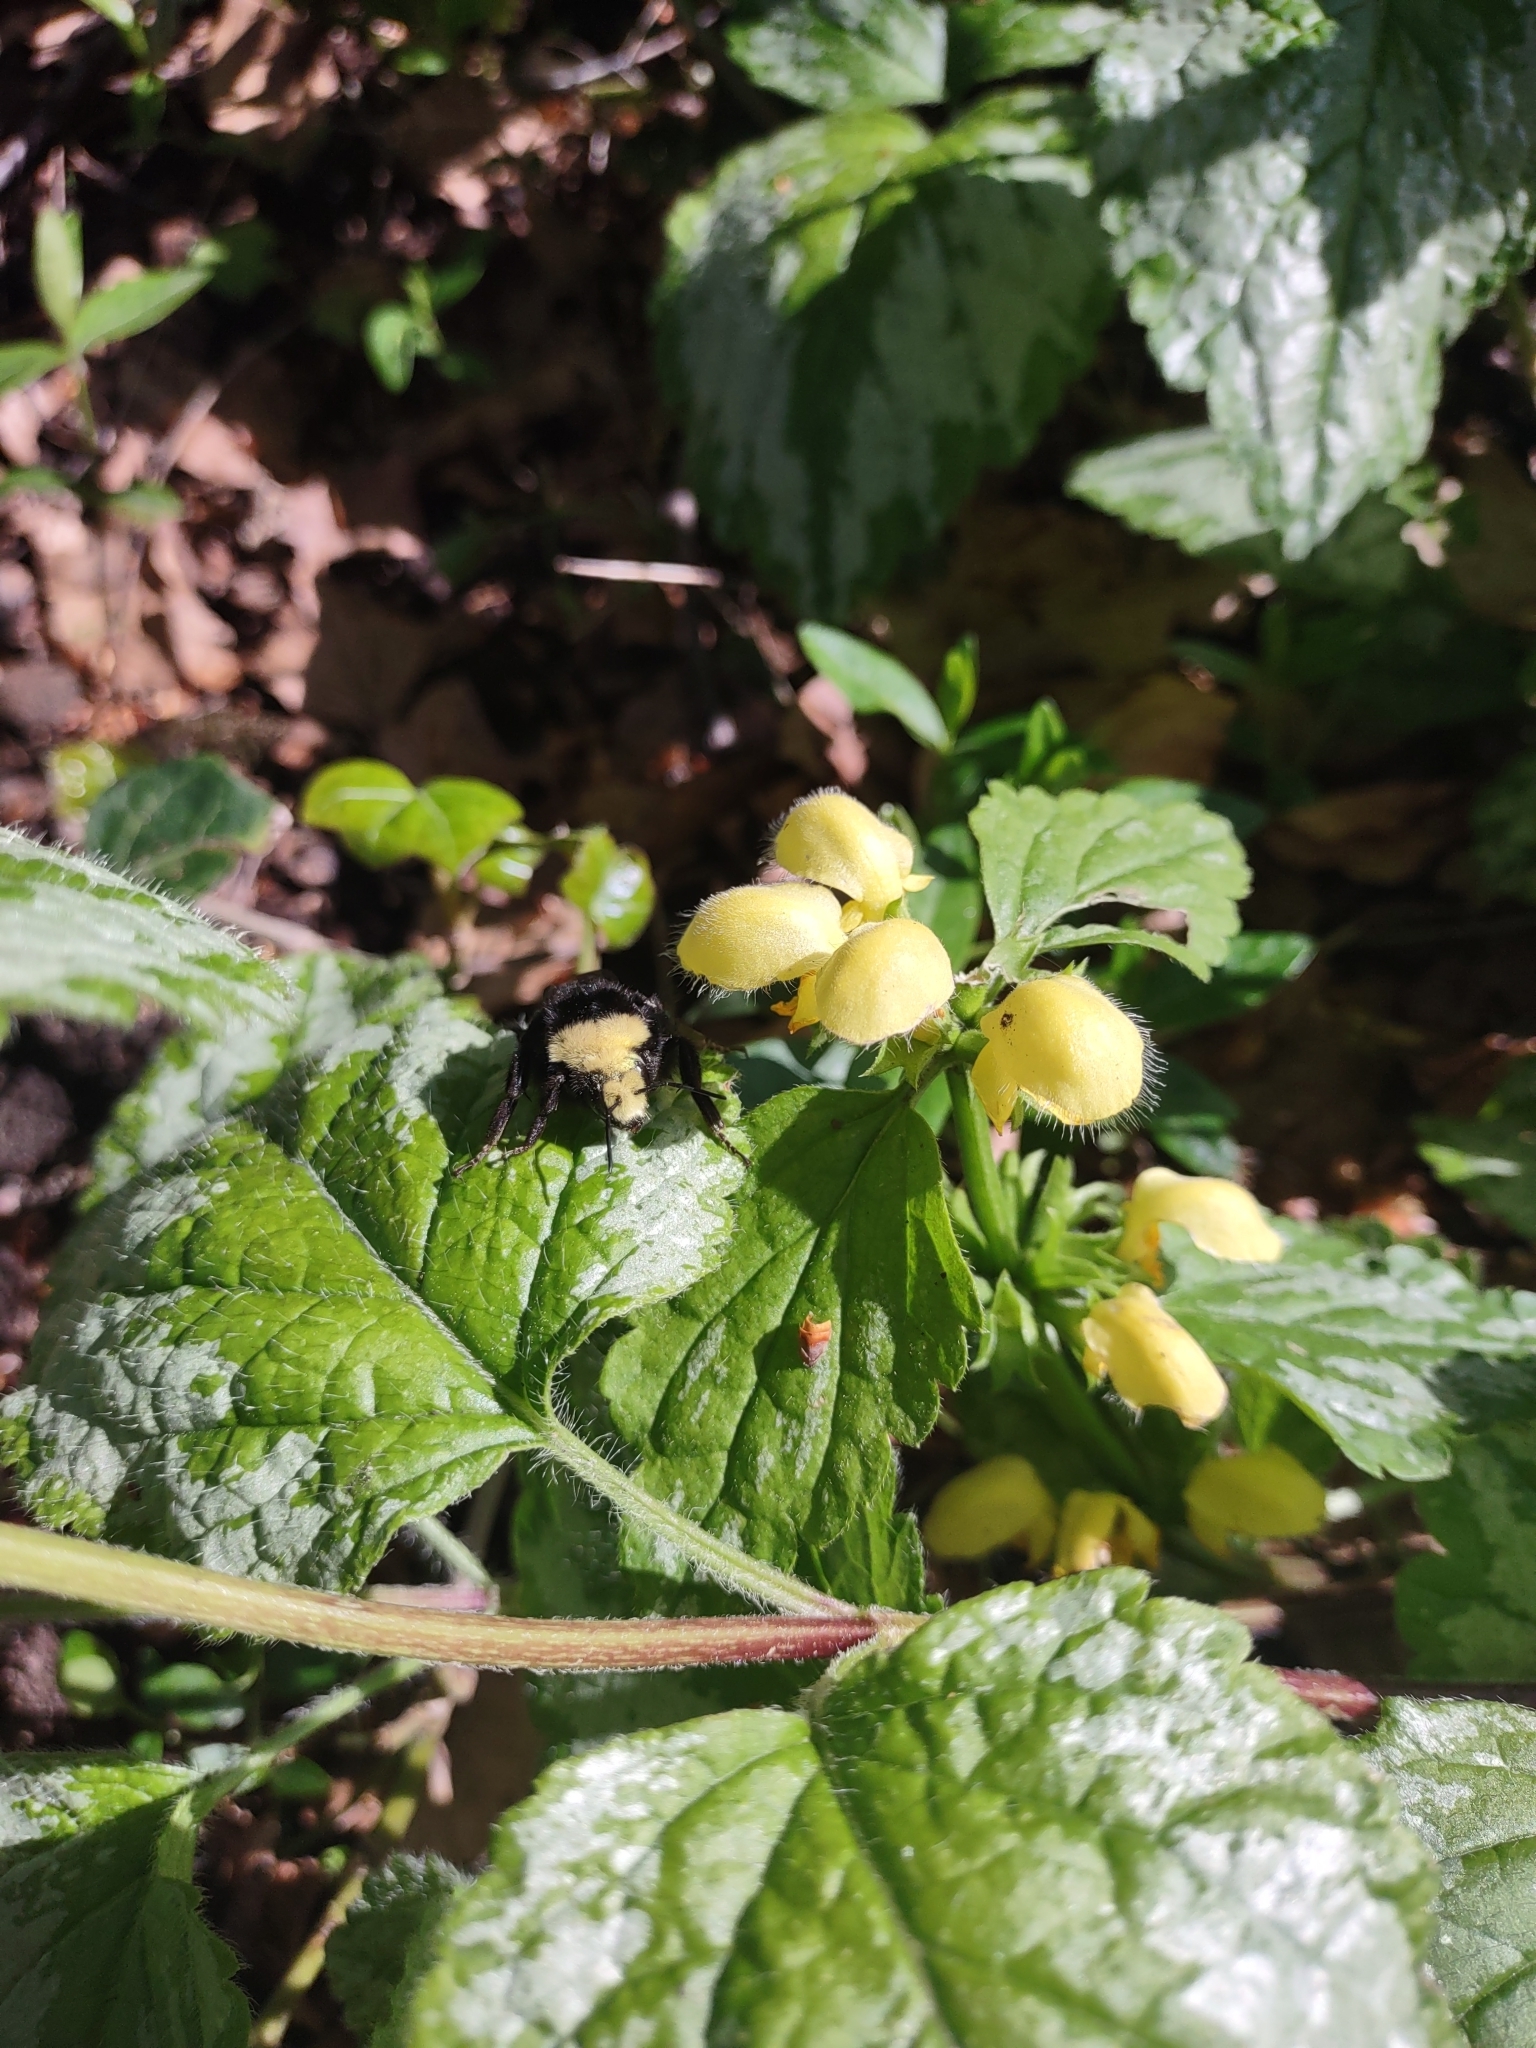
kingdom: Animalia
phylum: Arthropoda
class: Insecta
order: Hymenoptera
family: Apidae
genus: Bombus
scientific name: Bombus vosnesenskii
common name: Vosnesensky bumble bee
